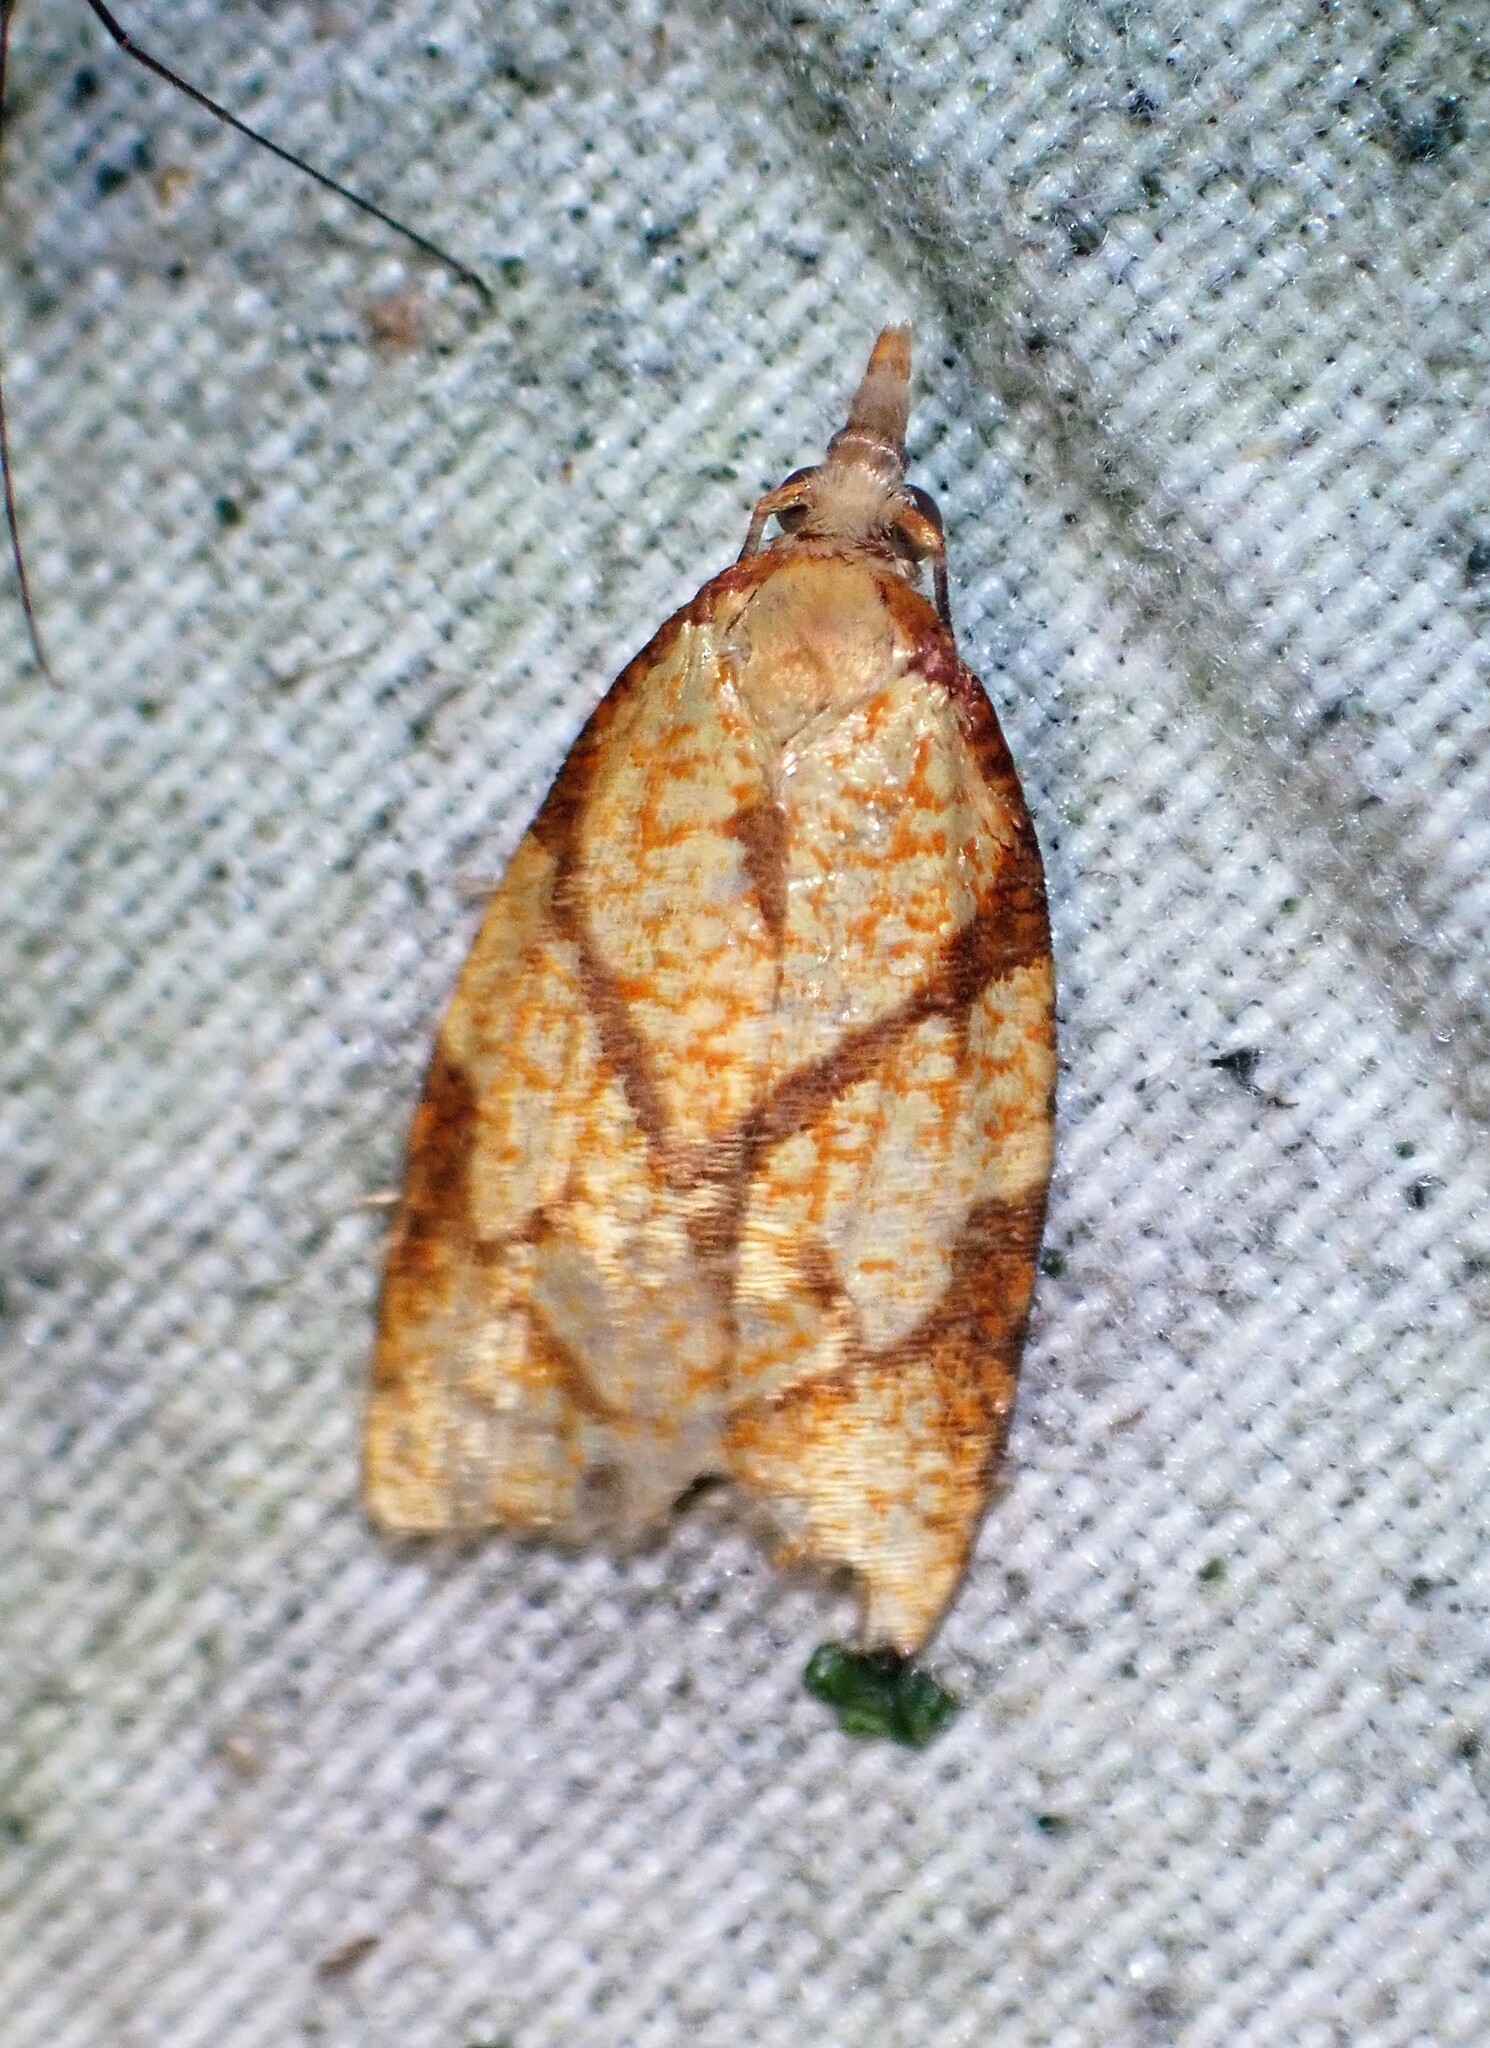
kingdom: Animalia
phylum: Arthropoda
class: Insecta
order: Lepidoptera
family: Tortricidae
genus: Cenopis
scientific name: Cenopis reticulatana
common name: Reticulated fruitworm moth
